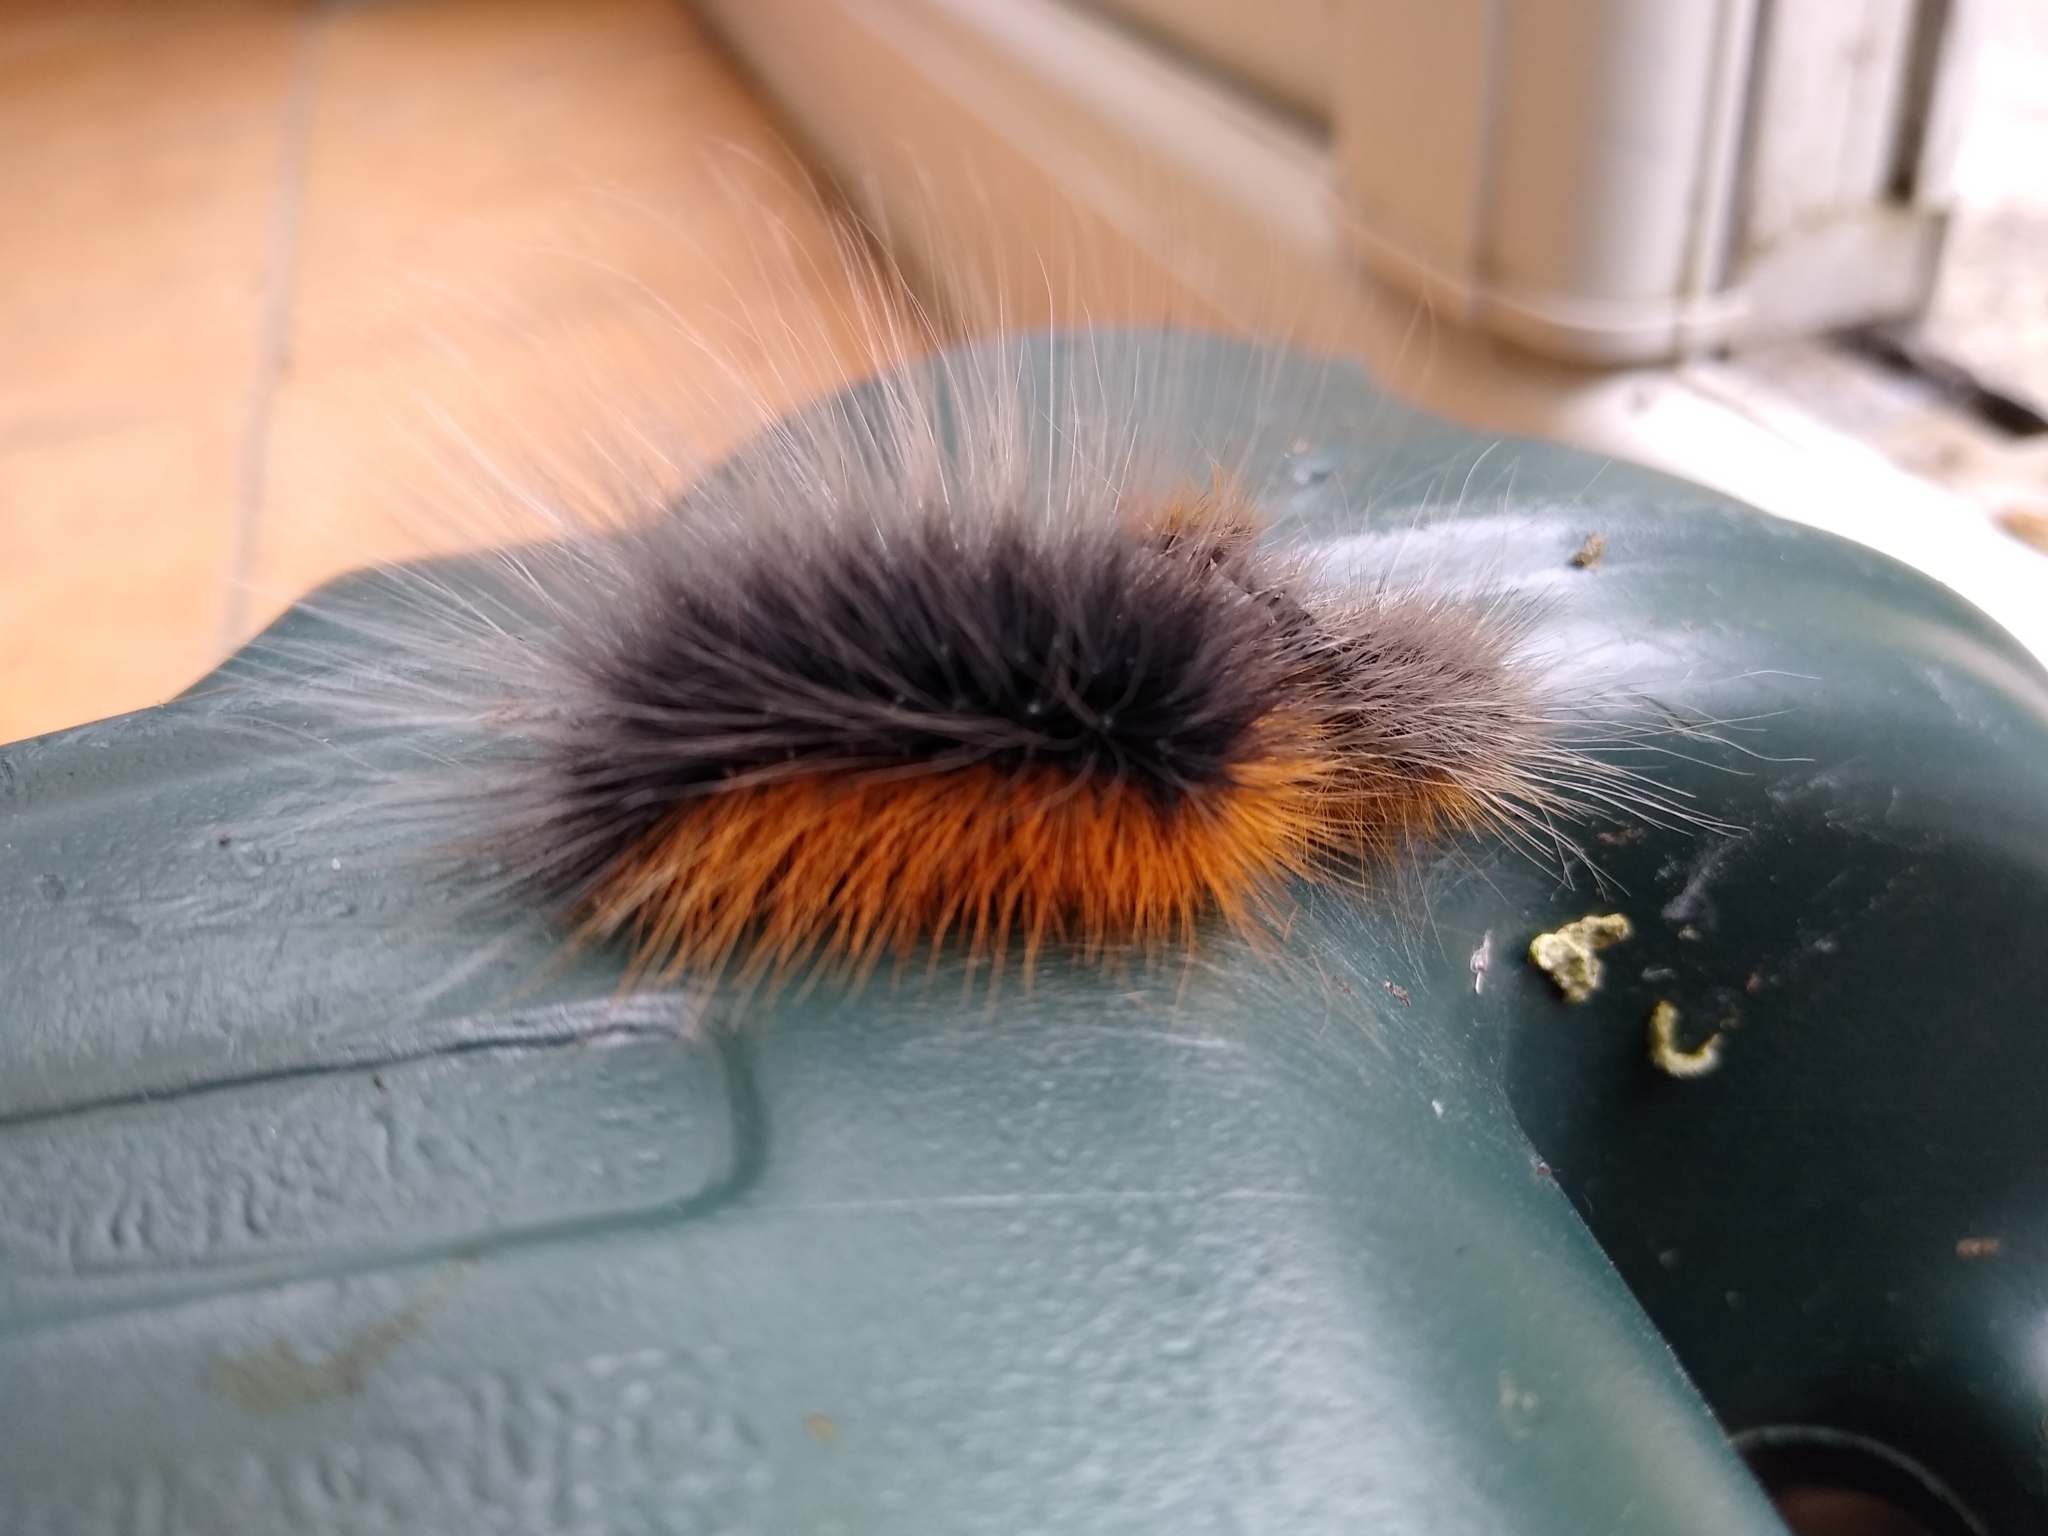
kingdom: Animalia
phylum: Arthropoda
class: Insecta
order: Lepidoptera
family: Erebidae
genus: Arctia
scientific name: Arctia caja
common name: Garden tiger
